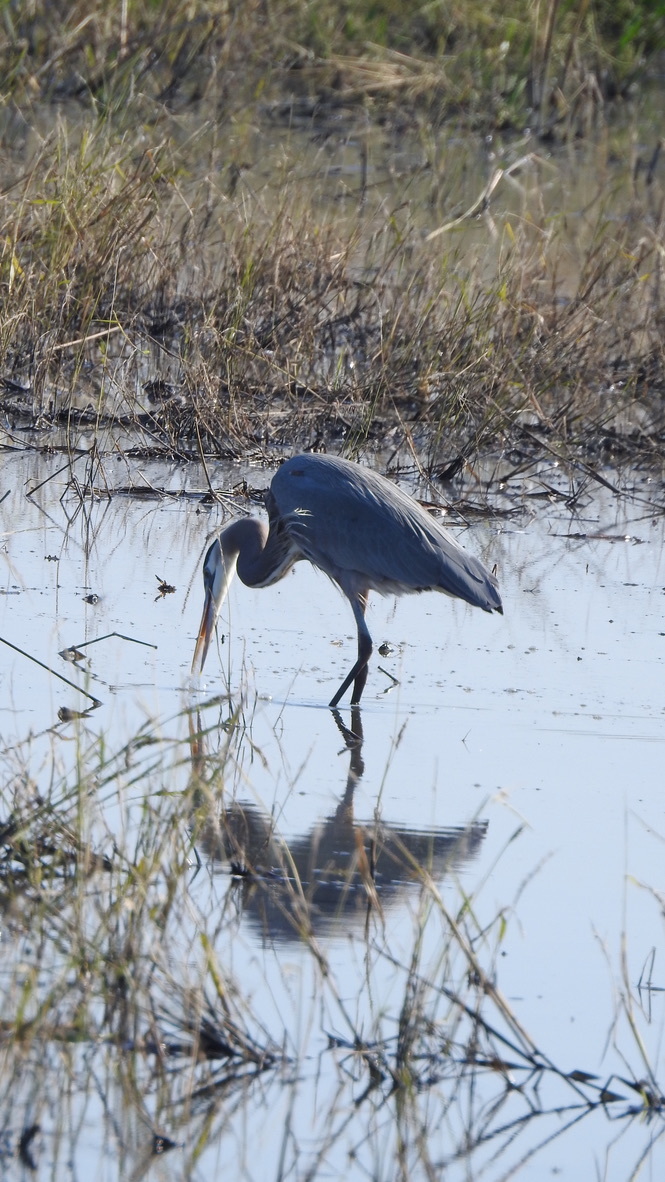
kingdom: Animalia
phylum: Chordata
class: Aves
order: Pelecaniformes
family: Ardeidae
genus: Ardea
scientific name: Ardea herodias
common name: Great blue heron
